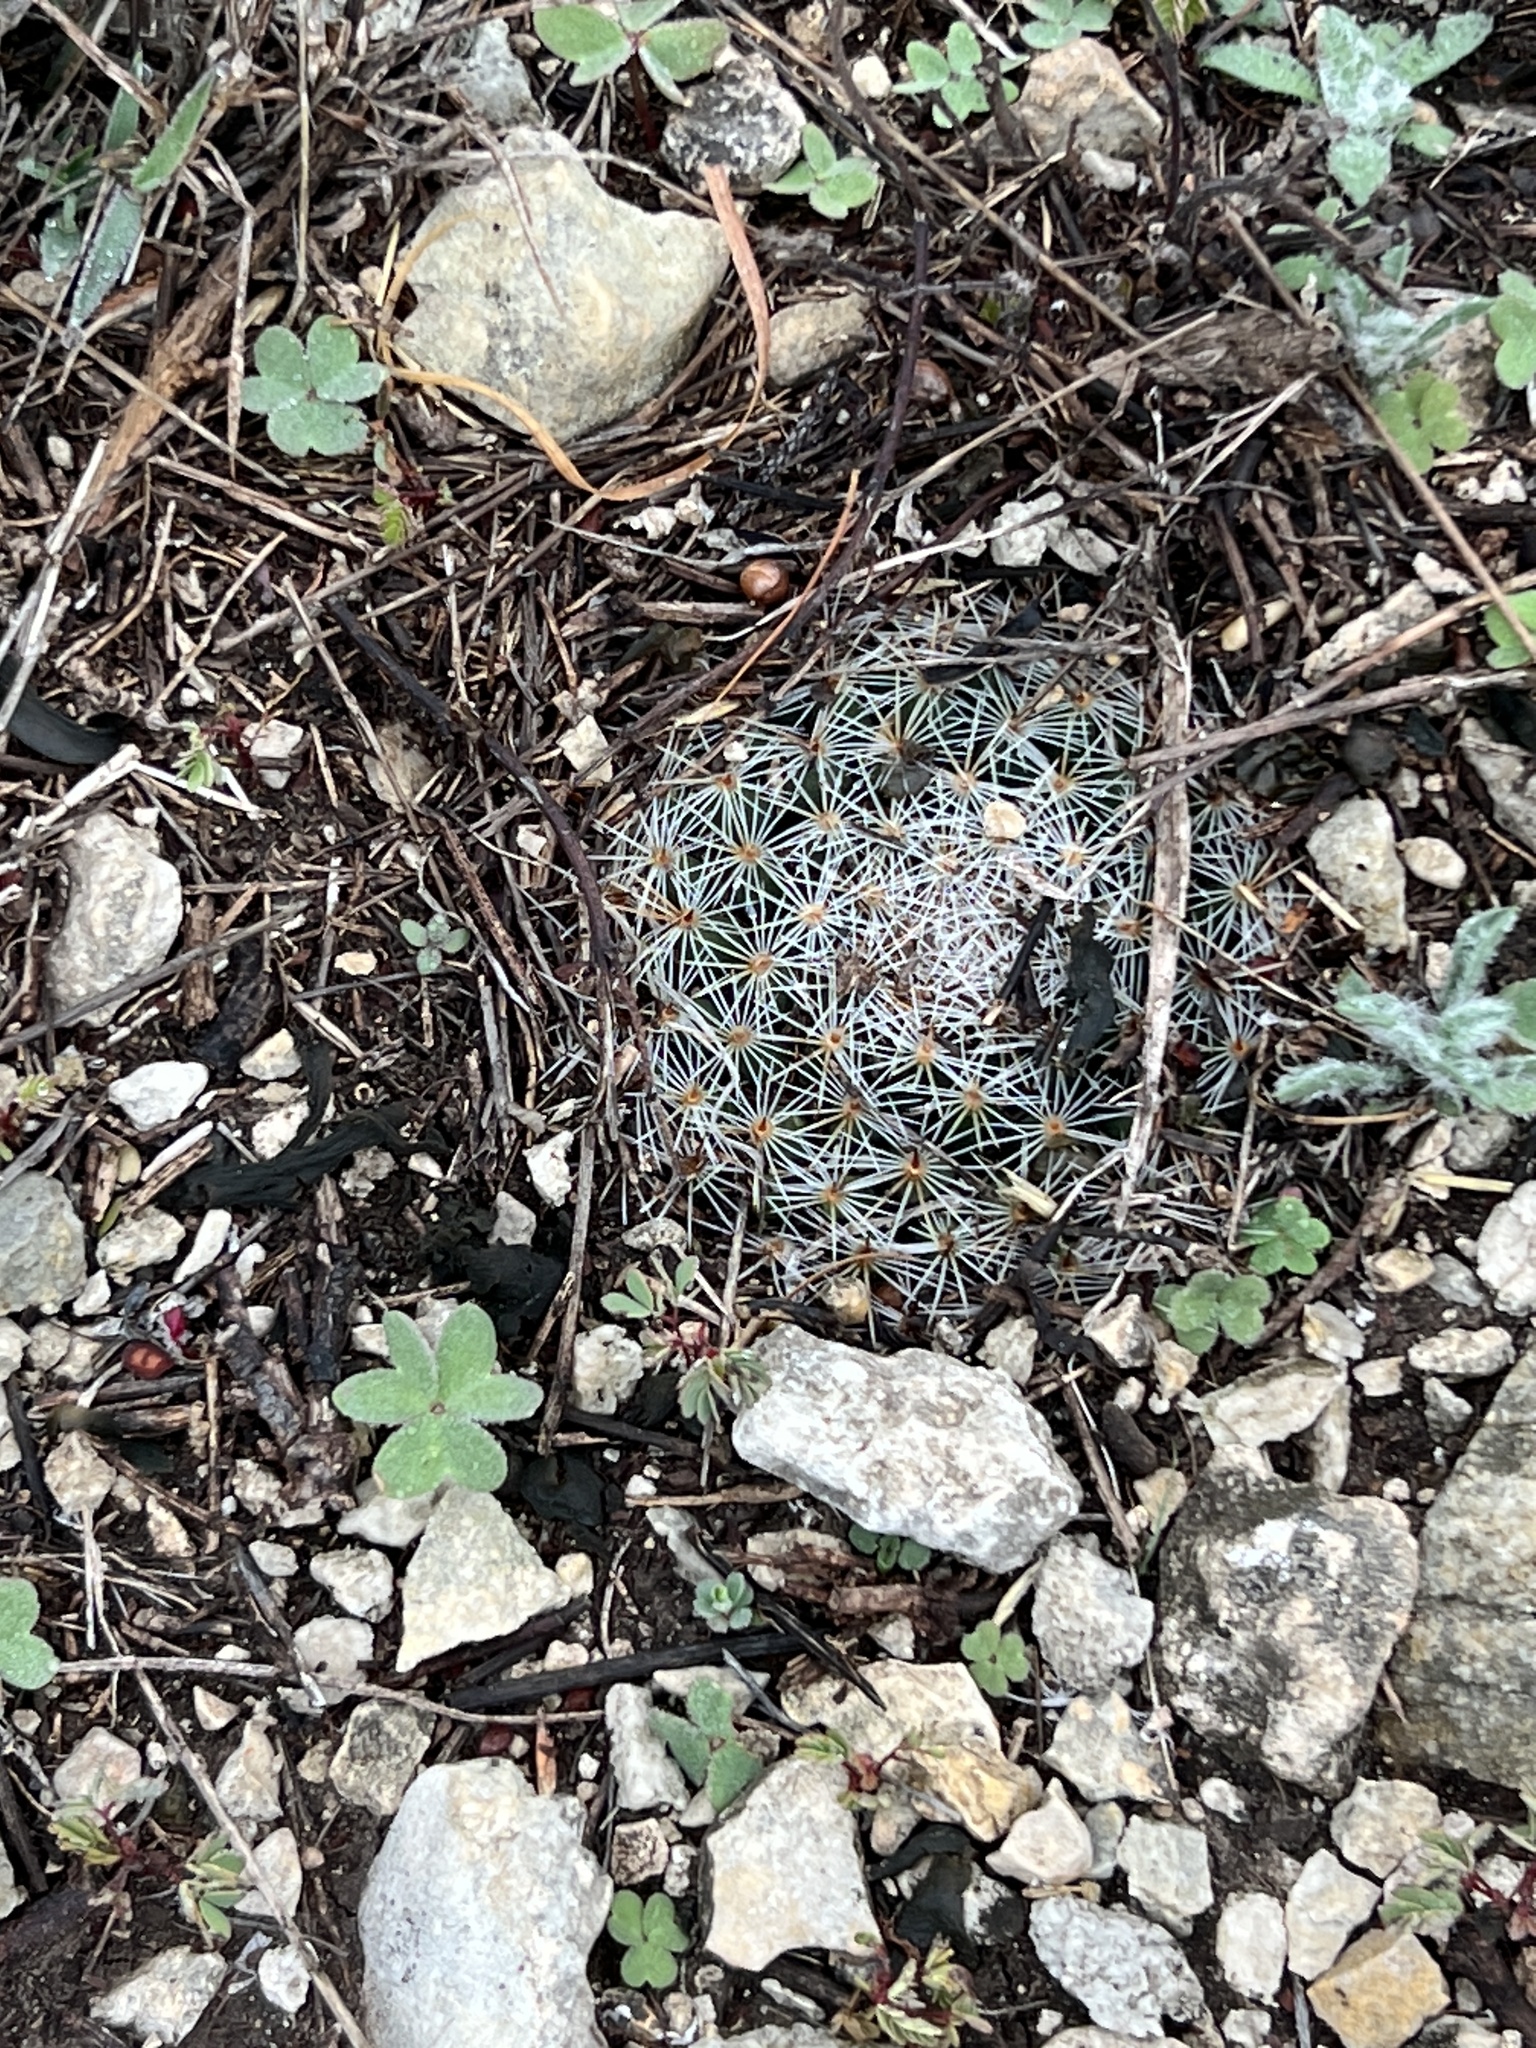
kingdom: Plantae
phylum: Tracheophyta
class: Magnoliopsida
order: Caryophyllales
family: Cactaceae
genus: Mammillaria
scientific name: Mammillaria heyderi
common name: Little nipple cactus
